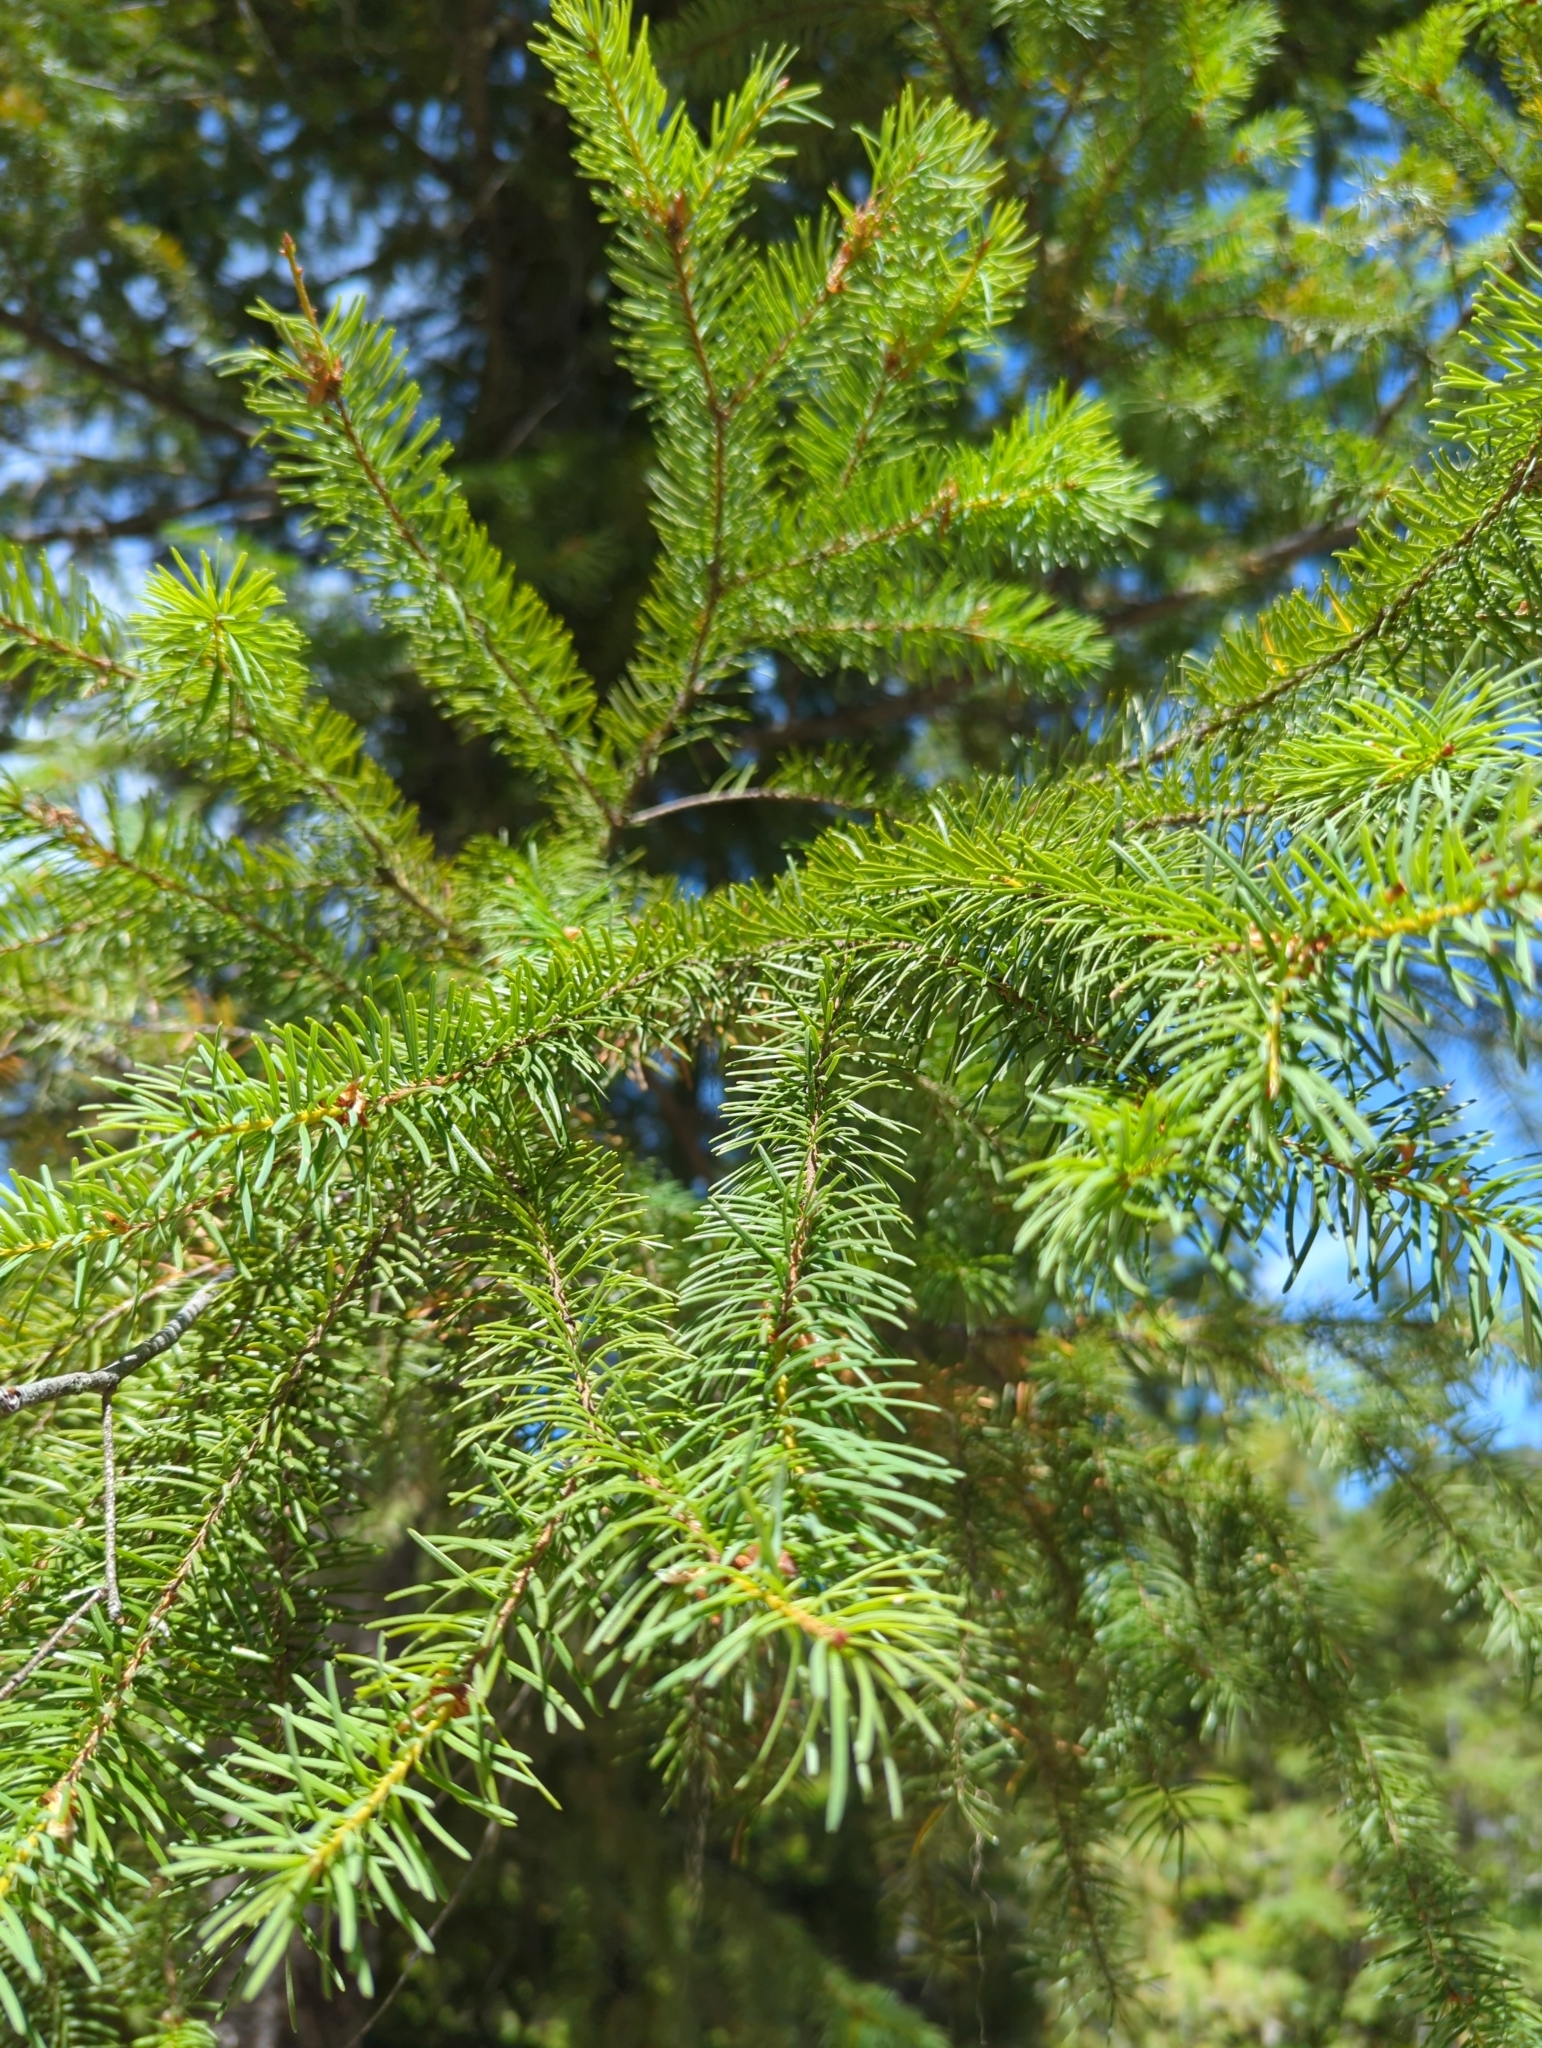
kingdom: Plantae
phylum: Tracheophyta
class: Pinopsida
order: Pinales
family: Pinaceae
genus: Pseudotsuga
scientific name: Pseudotsuga menziesii
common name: Douglas fir
